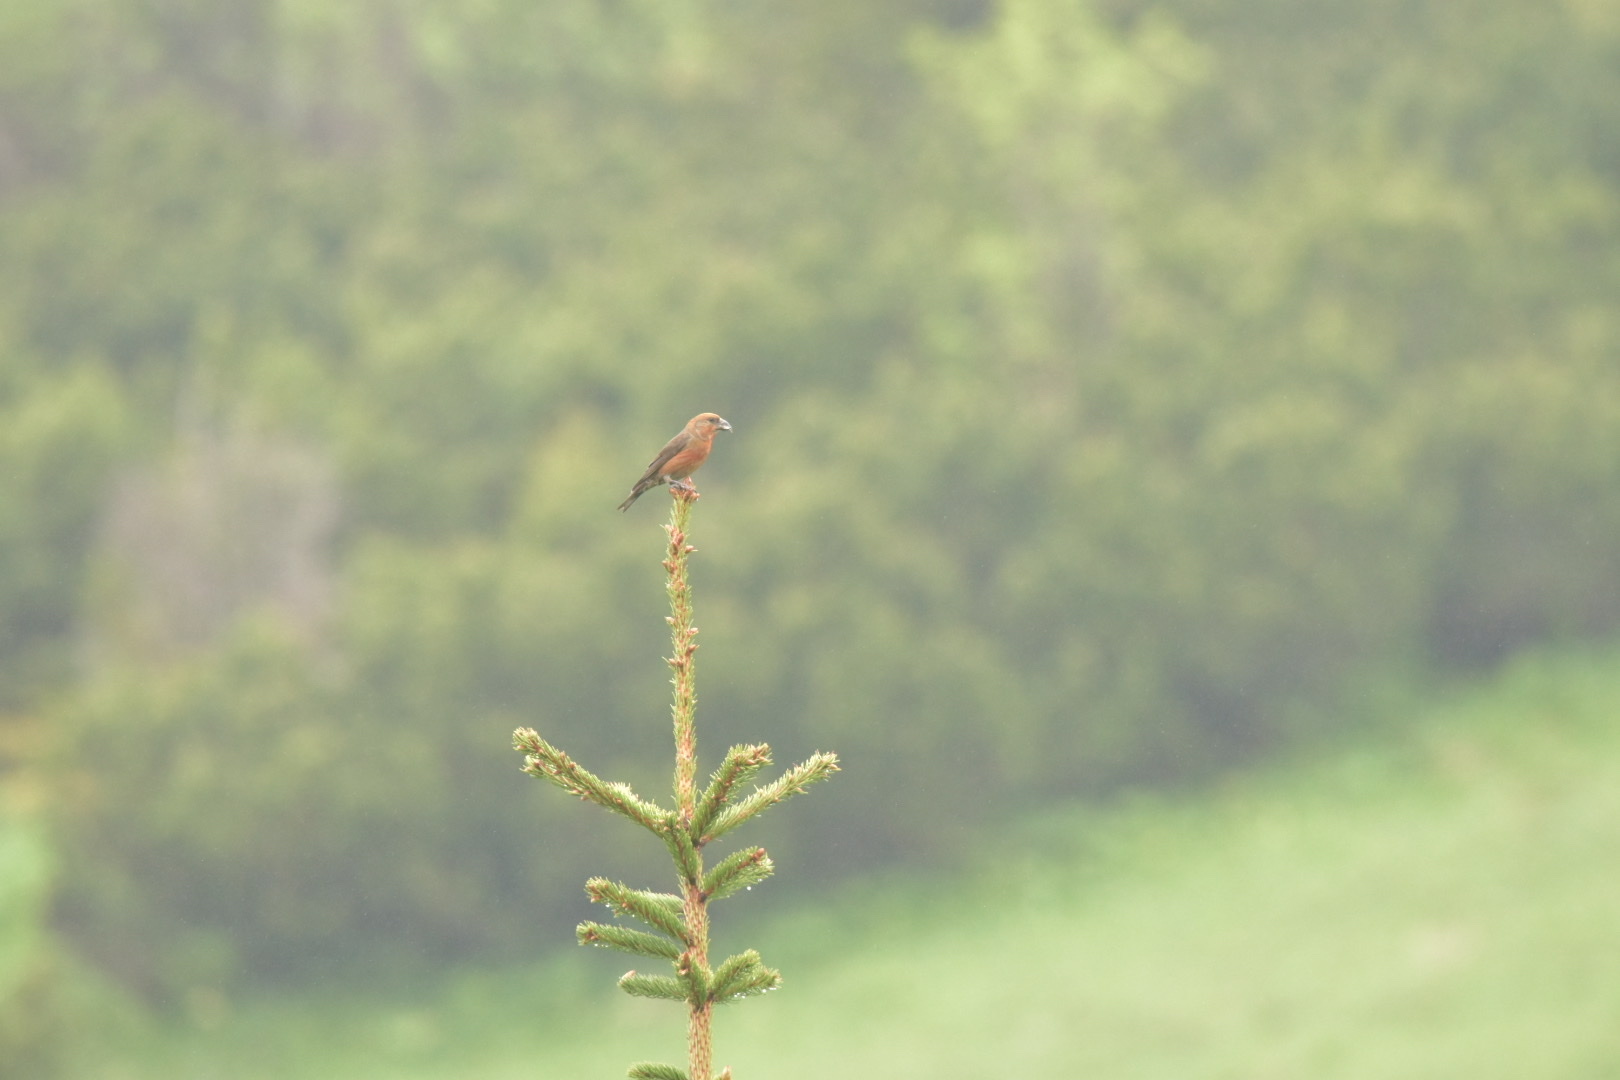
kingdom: Animalia
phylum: Chordata
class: Aves
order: Passeriformes
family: Fringillidae
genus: Loxia
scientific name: Loxia curvirostra
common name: Red crossbill
